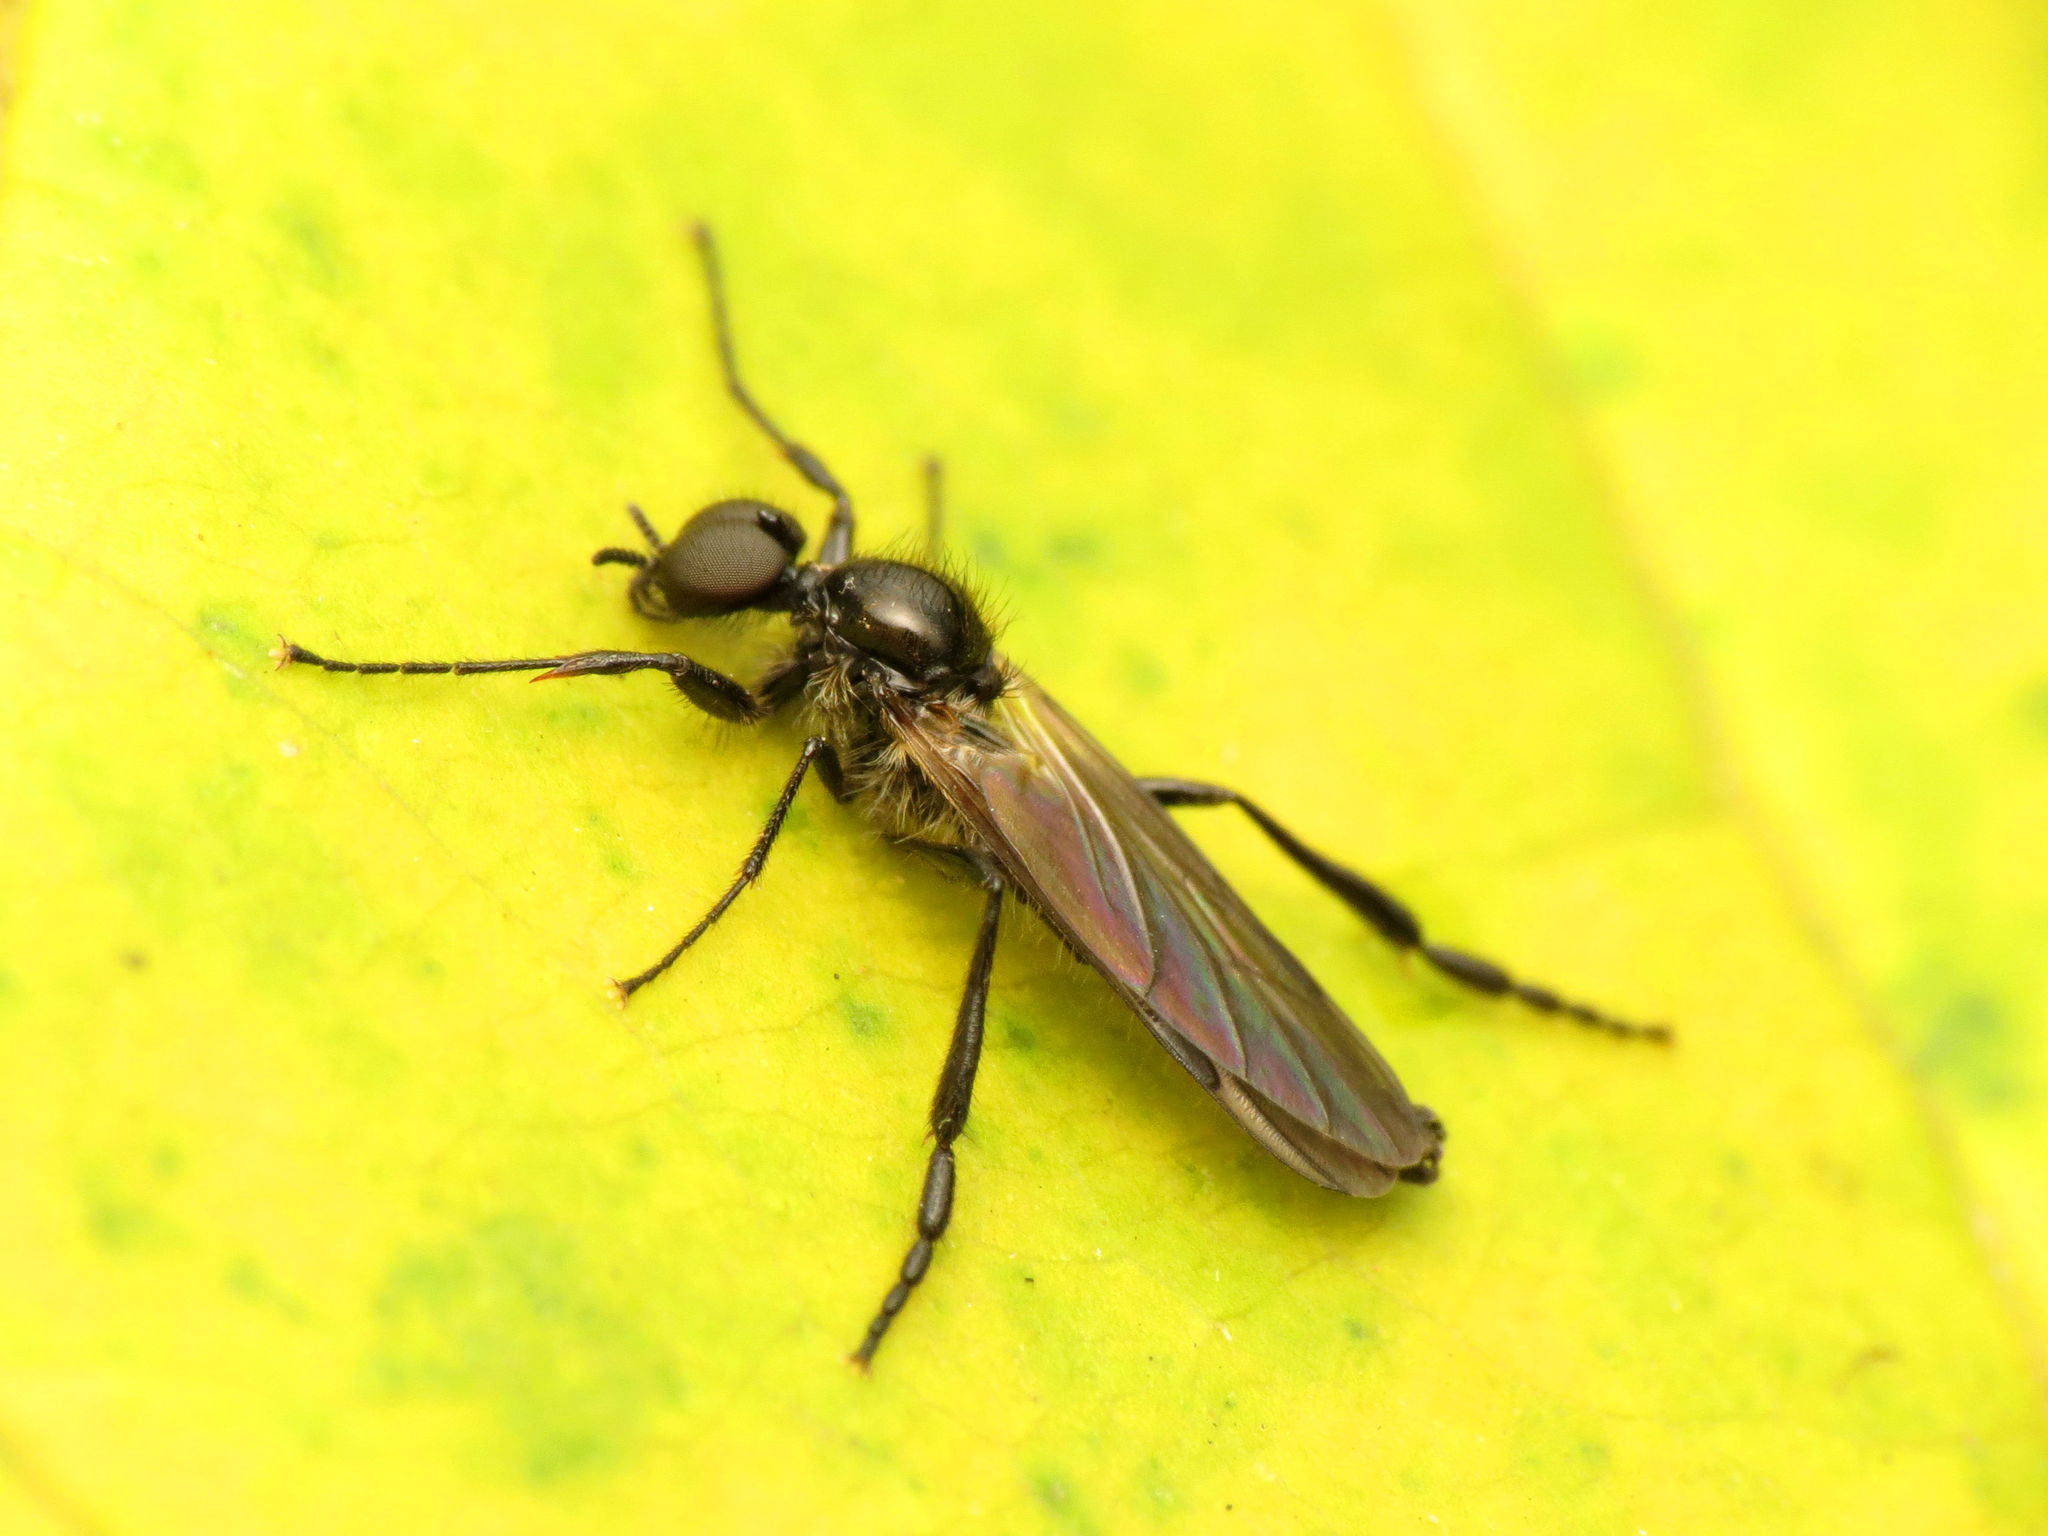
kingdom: Animalia
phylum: Arthropoda
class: Insecta
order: Diptera
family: Bibionidae
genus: Bibio
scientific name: Bibio longipes
